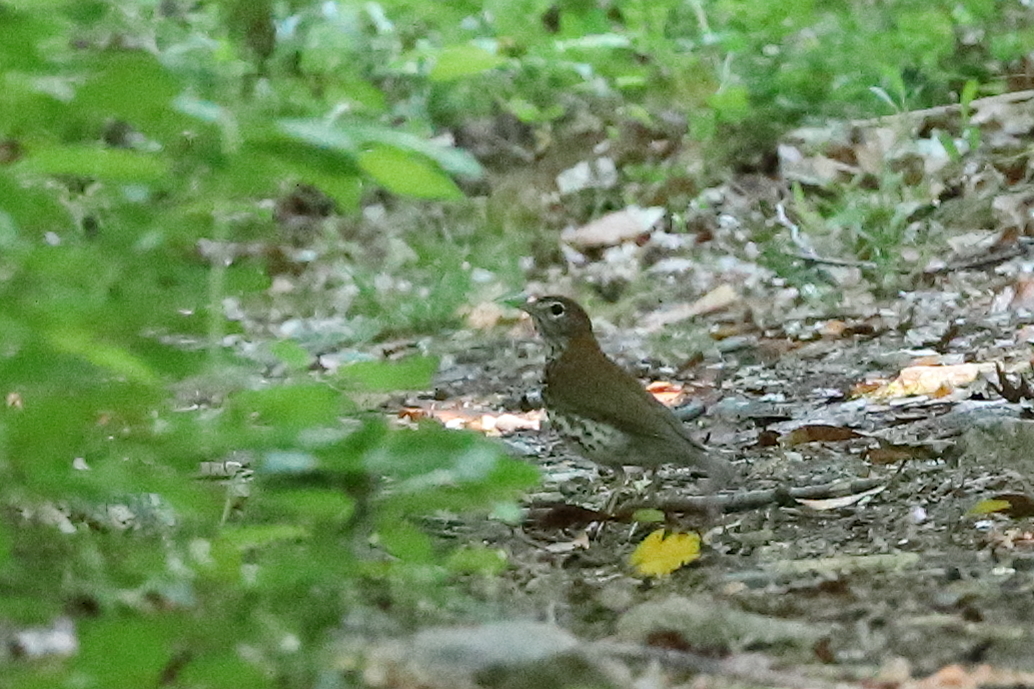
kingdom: Animalia
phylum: Chordata
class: Aves
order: Passeriformes
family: Turdidae
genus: Hylocichla
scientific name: Hylocichla mustelina
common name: Wood thrush
